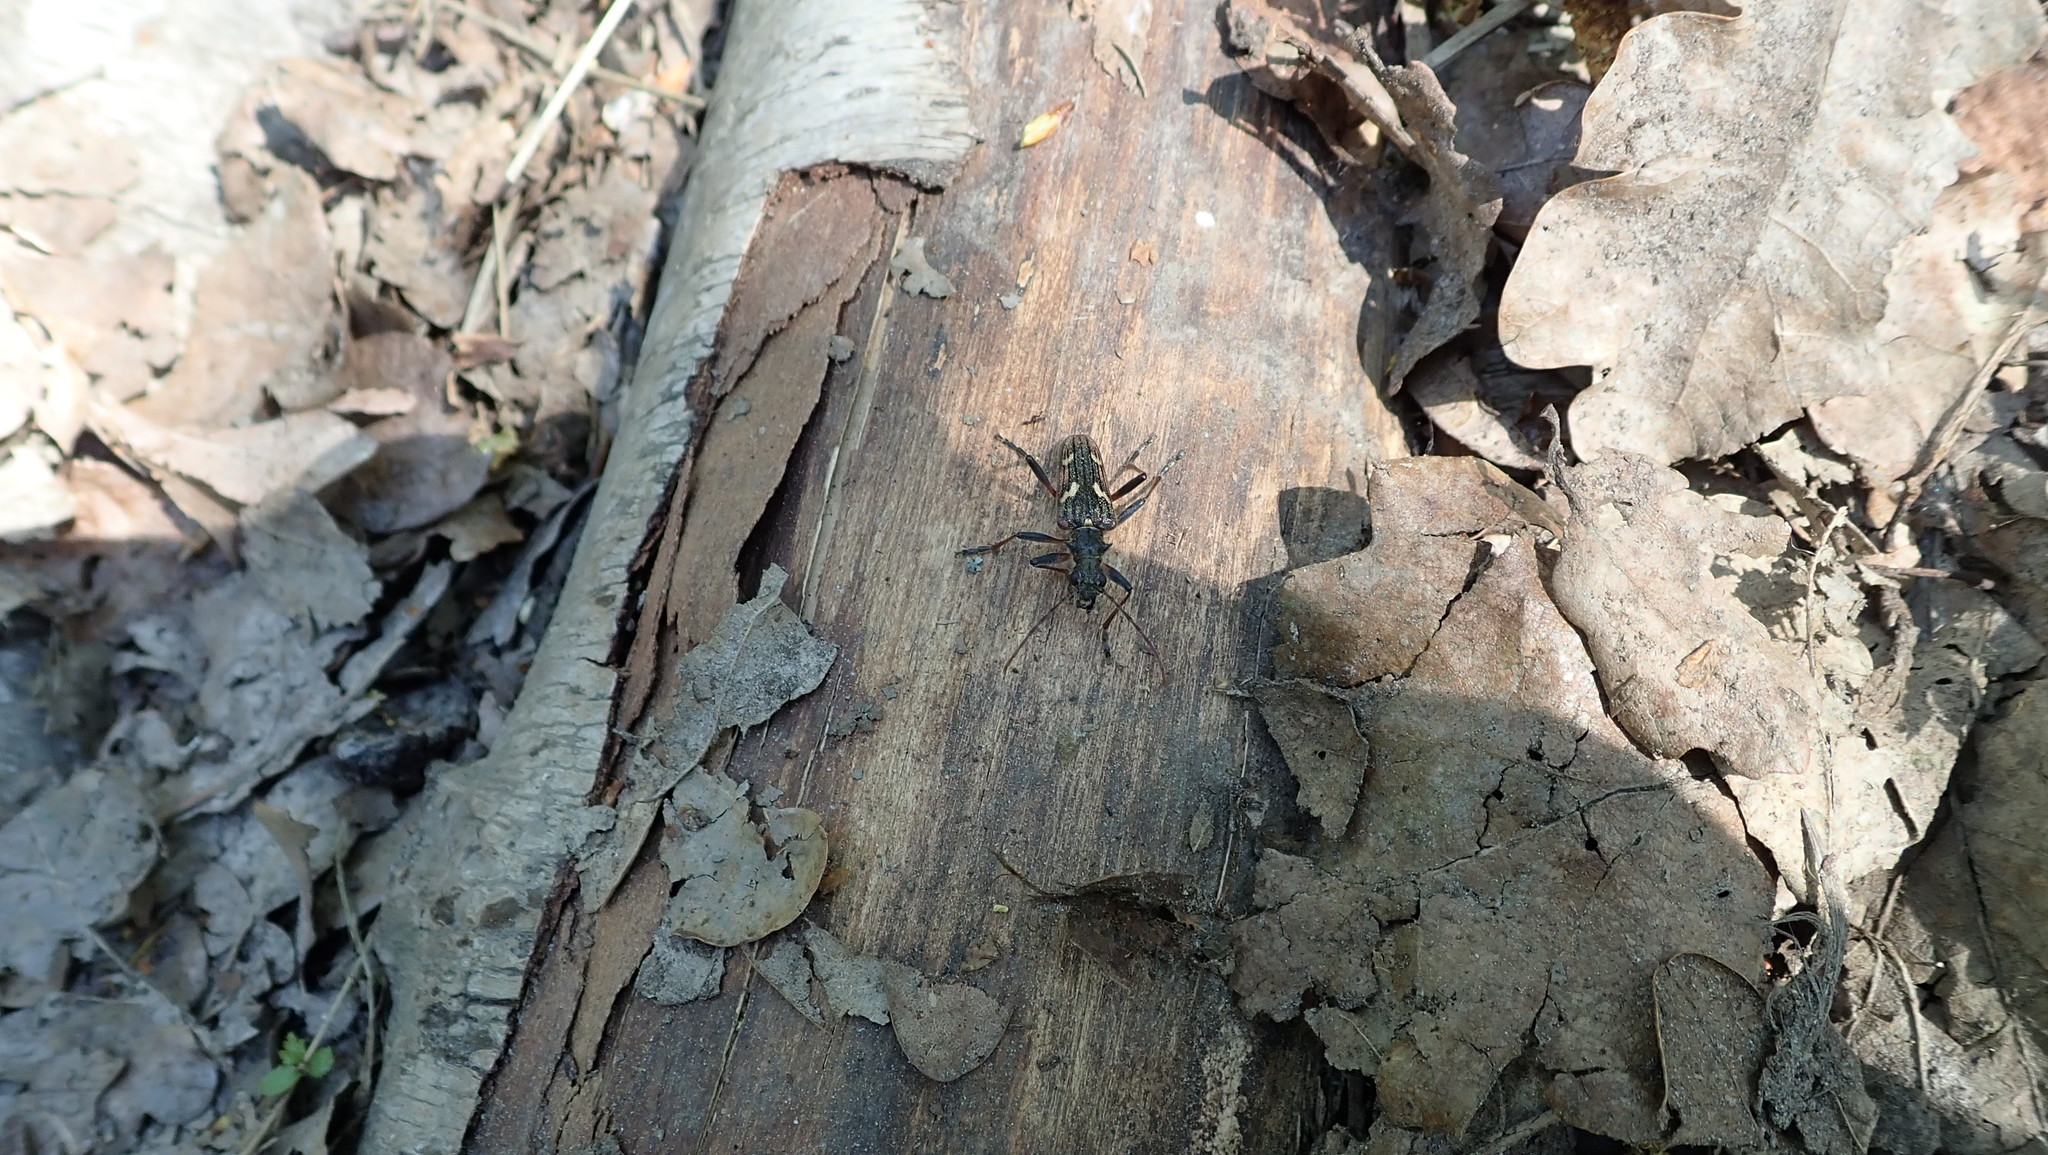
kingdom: Animalia
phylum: Arthropoda
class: Insecta
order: Coleoptera
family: Cerambycidae
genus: Rhagium
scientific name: Rhagium bifasciatum
